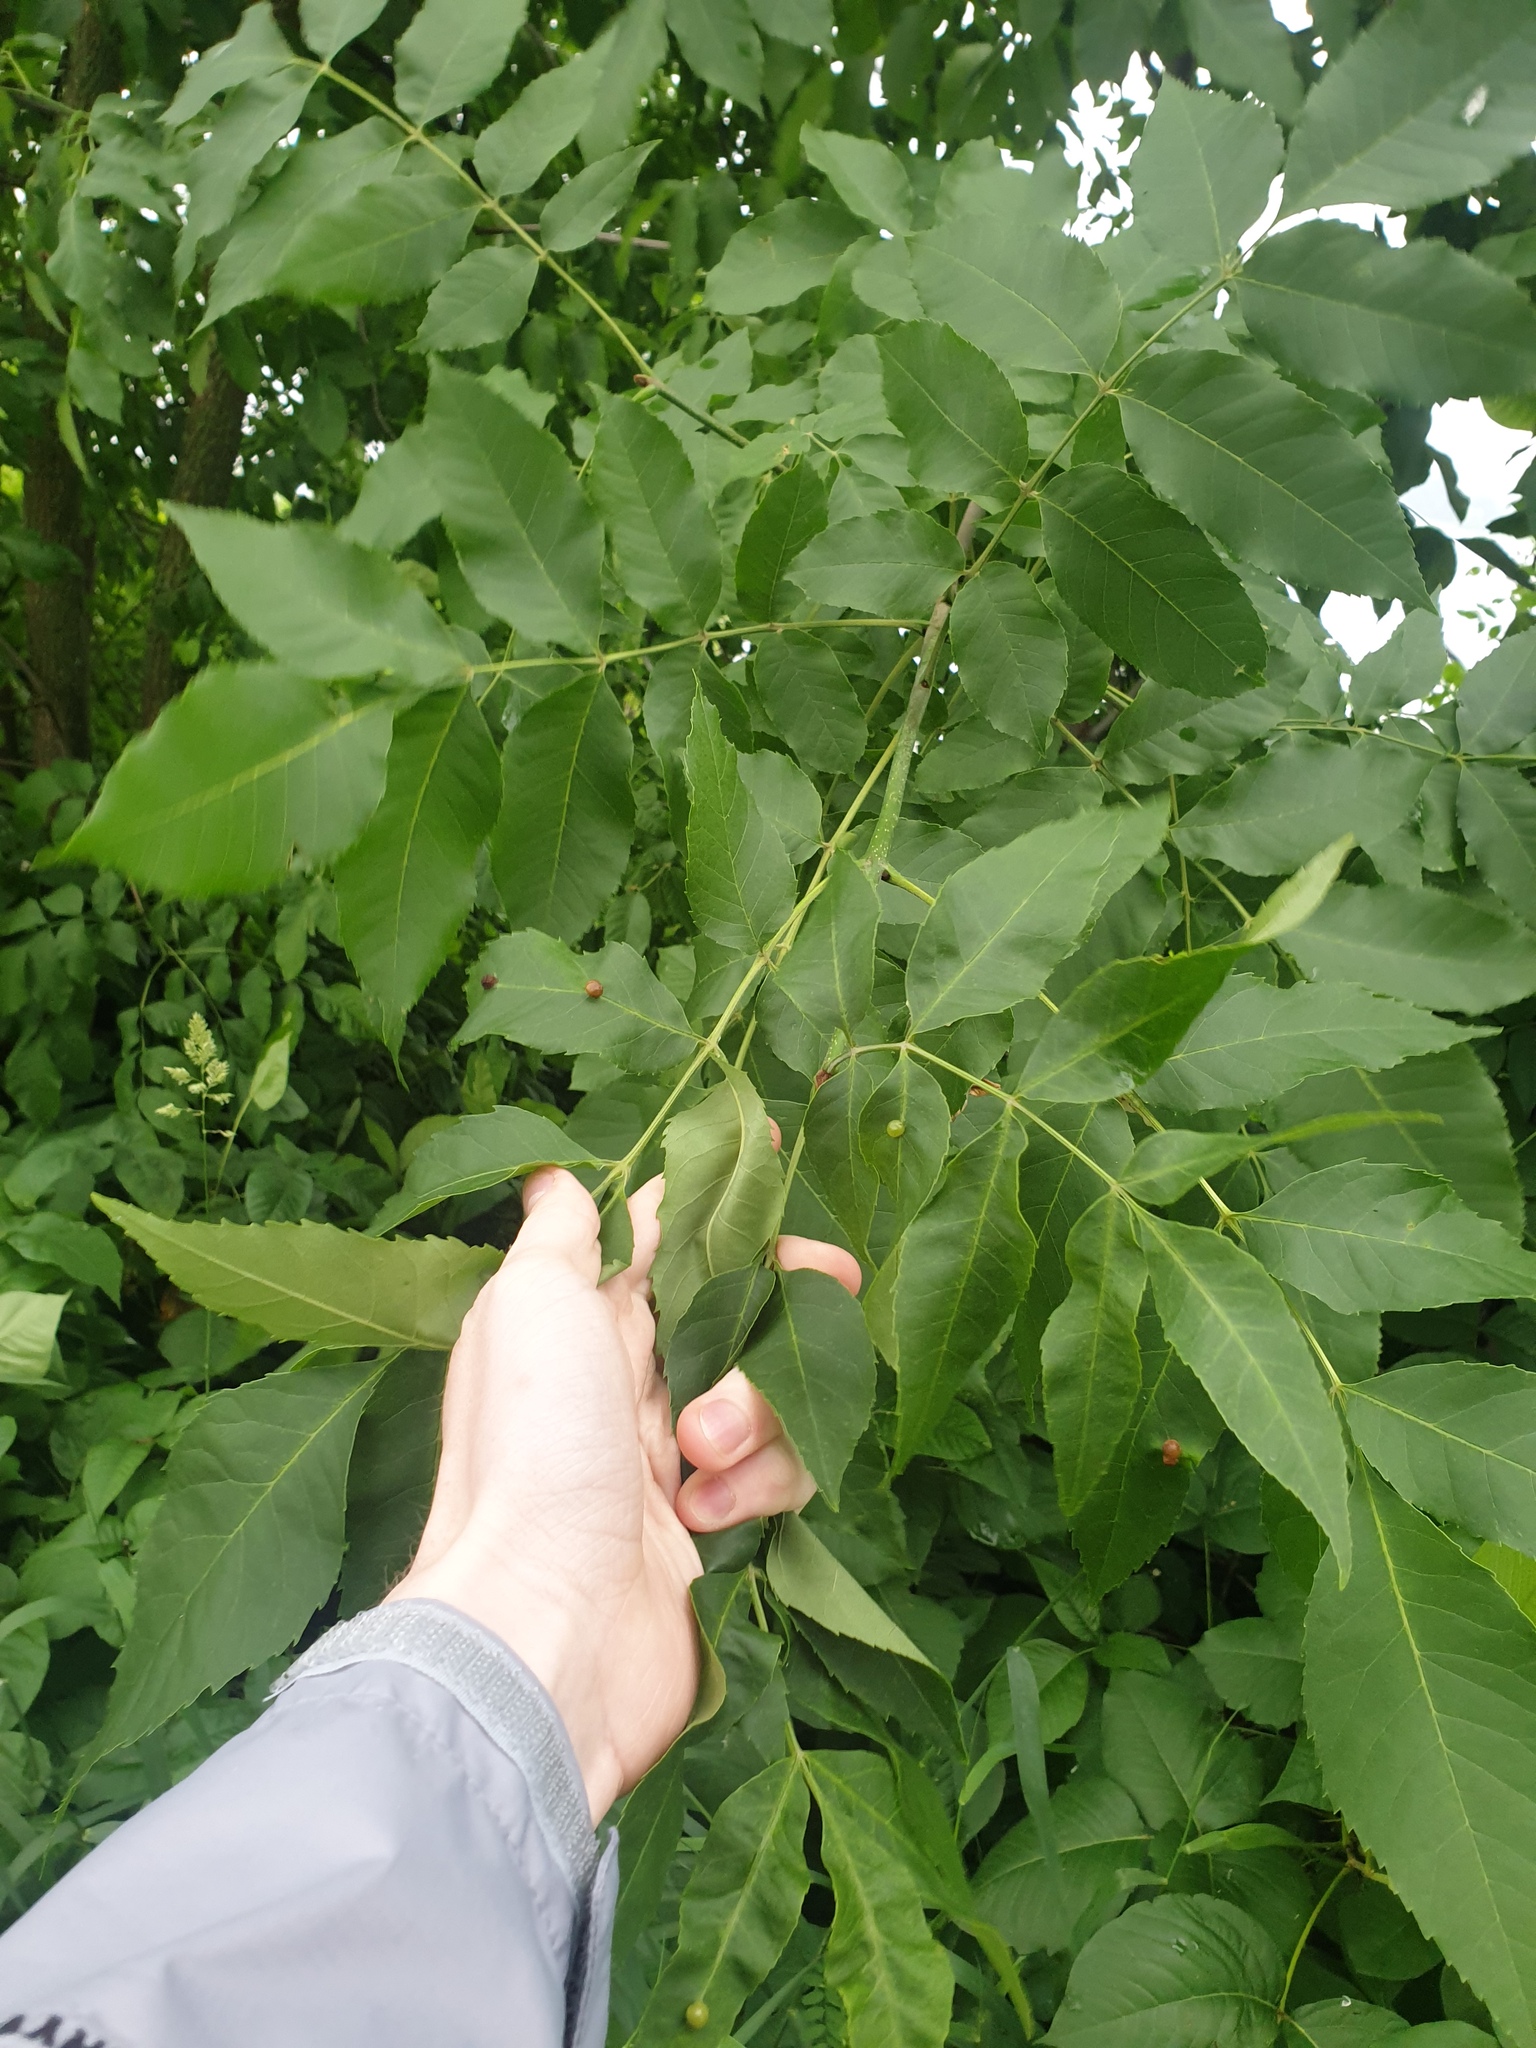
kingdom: Plantae
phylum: Tracheophyta
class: Magnoliopsida
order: Lamiales
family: Oleaceae
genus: Fraxinus
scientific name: Fraxinus pennsylvanica
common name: Green ash
